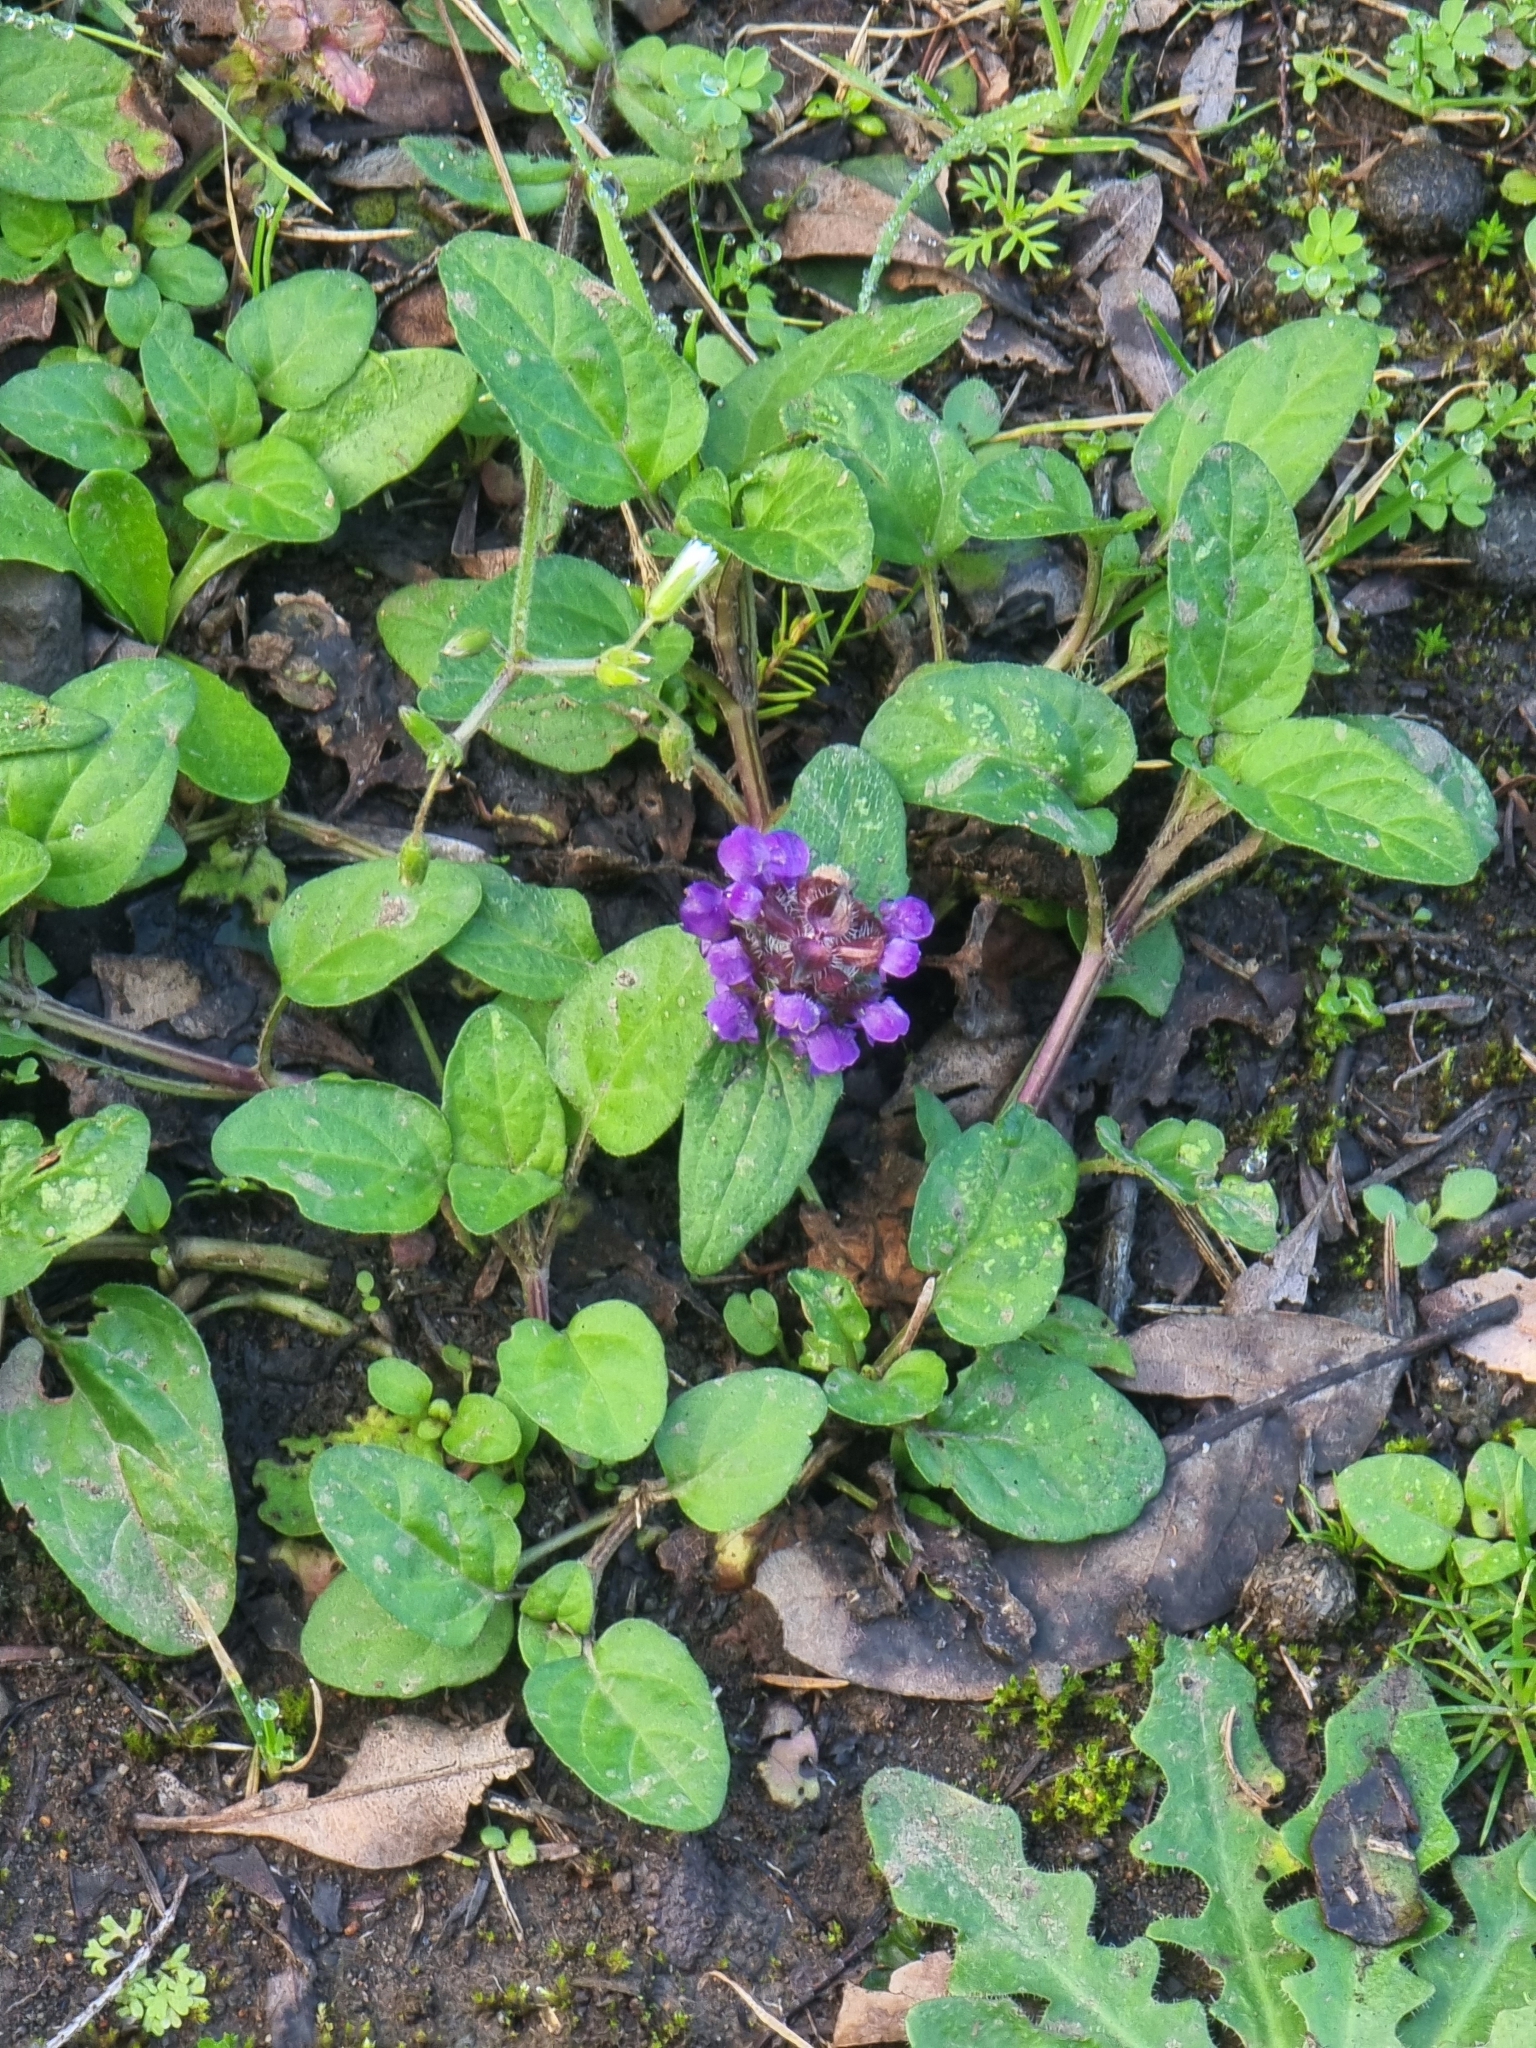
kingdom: Plantae
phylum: Tracheophyta
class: Magnoliopsida
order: Lamiales
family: Lamiaceae
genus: Prunella
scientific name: Prunella vulgaris
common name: Heal-all
